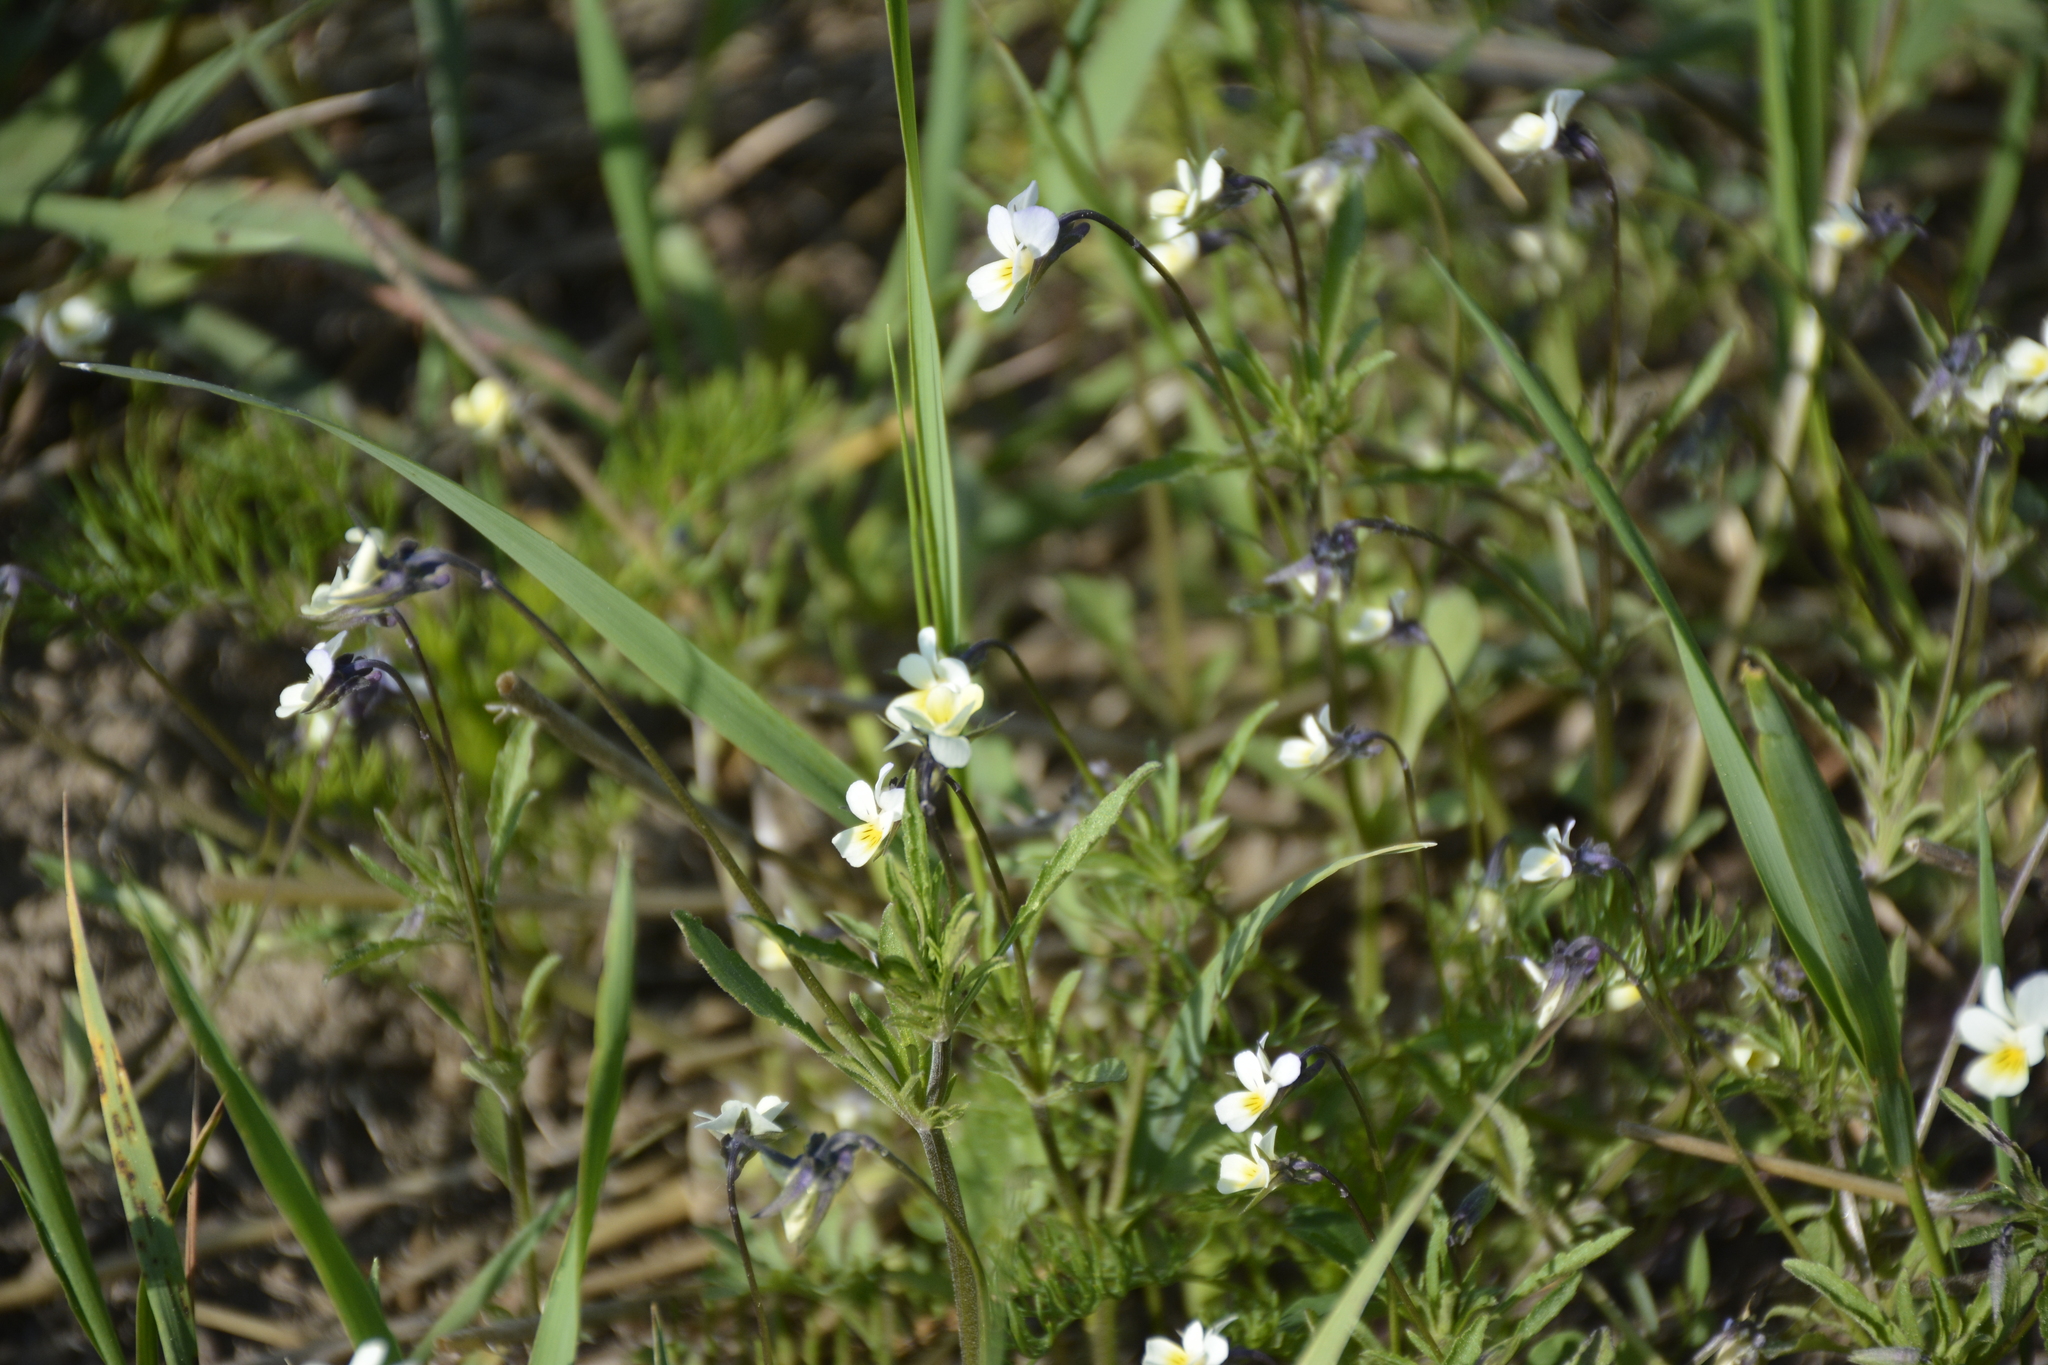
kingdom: Plantae
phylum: Tracheophyta
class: Magnoliopsida
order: Malpighiales
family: Violaceae
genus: Viola
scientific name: Viola arvensis
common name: Field pansy
